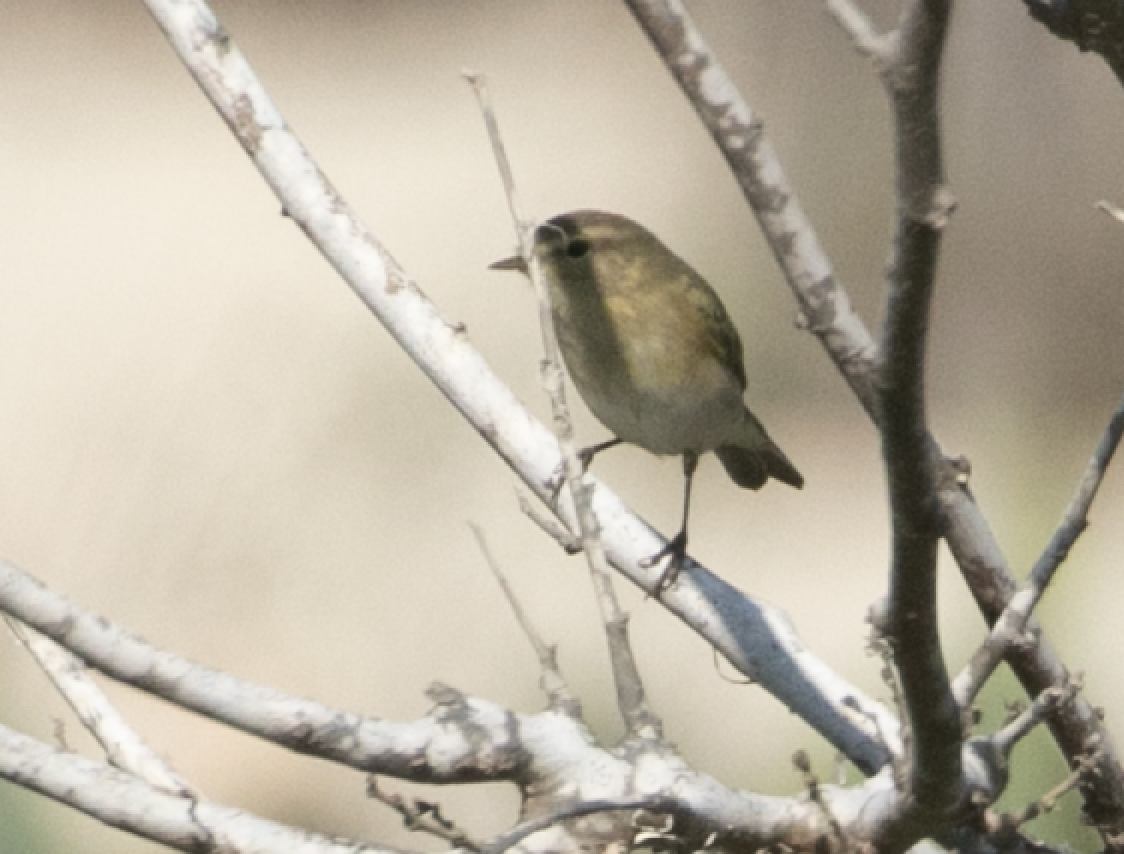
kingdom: Animalia
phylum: Chordata
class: Aves
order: Passeriformes
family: Phylloscopidae
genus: Phylloscopus
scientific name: Phylloscopus collybita
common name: Common chiffchaff
